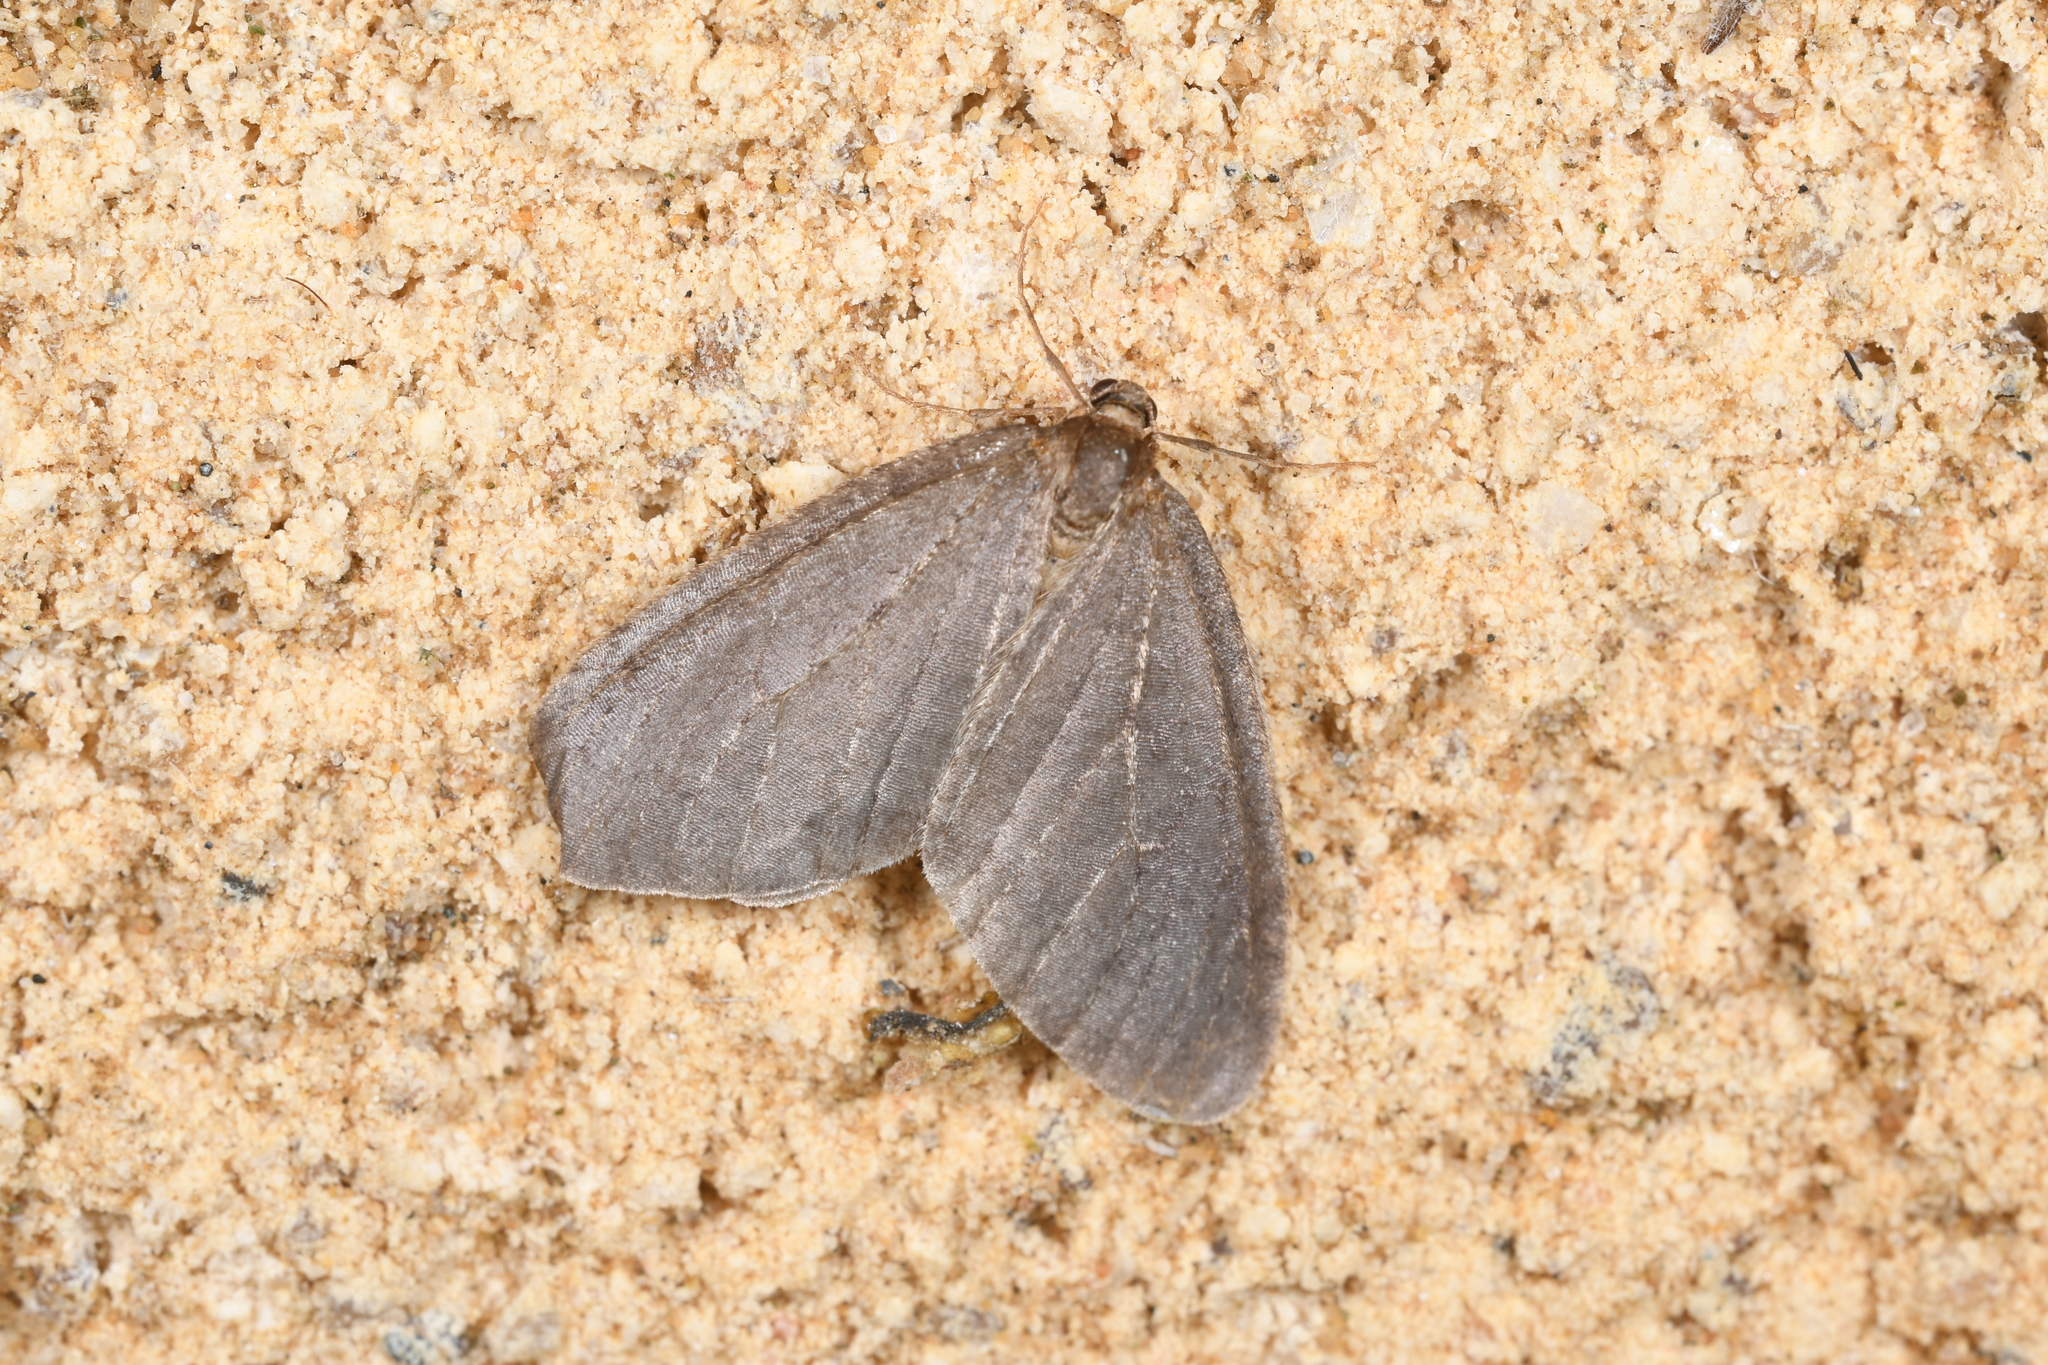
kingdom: Animalia
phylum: Arthropoda
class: Insecta
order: Lepidoptera
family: Geometridae
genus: Operophtera
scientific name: Operophtera brumata
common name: Winter moth
